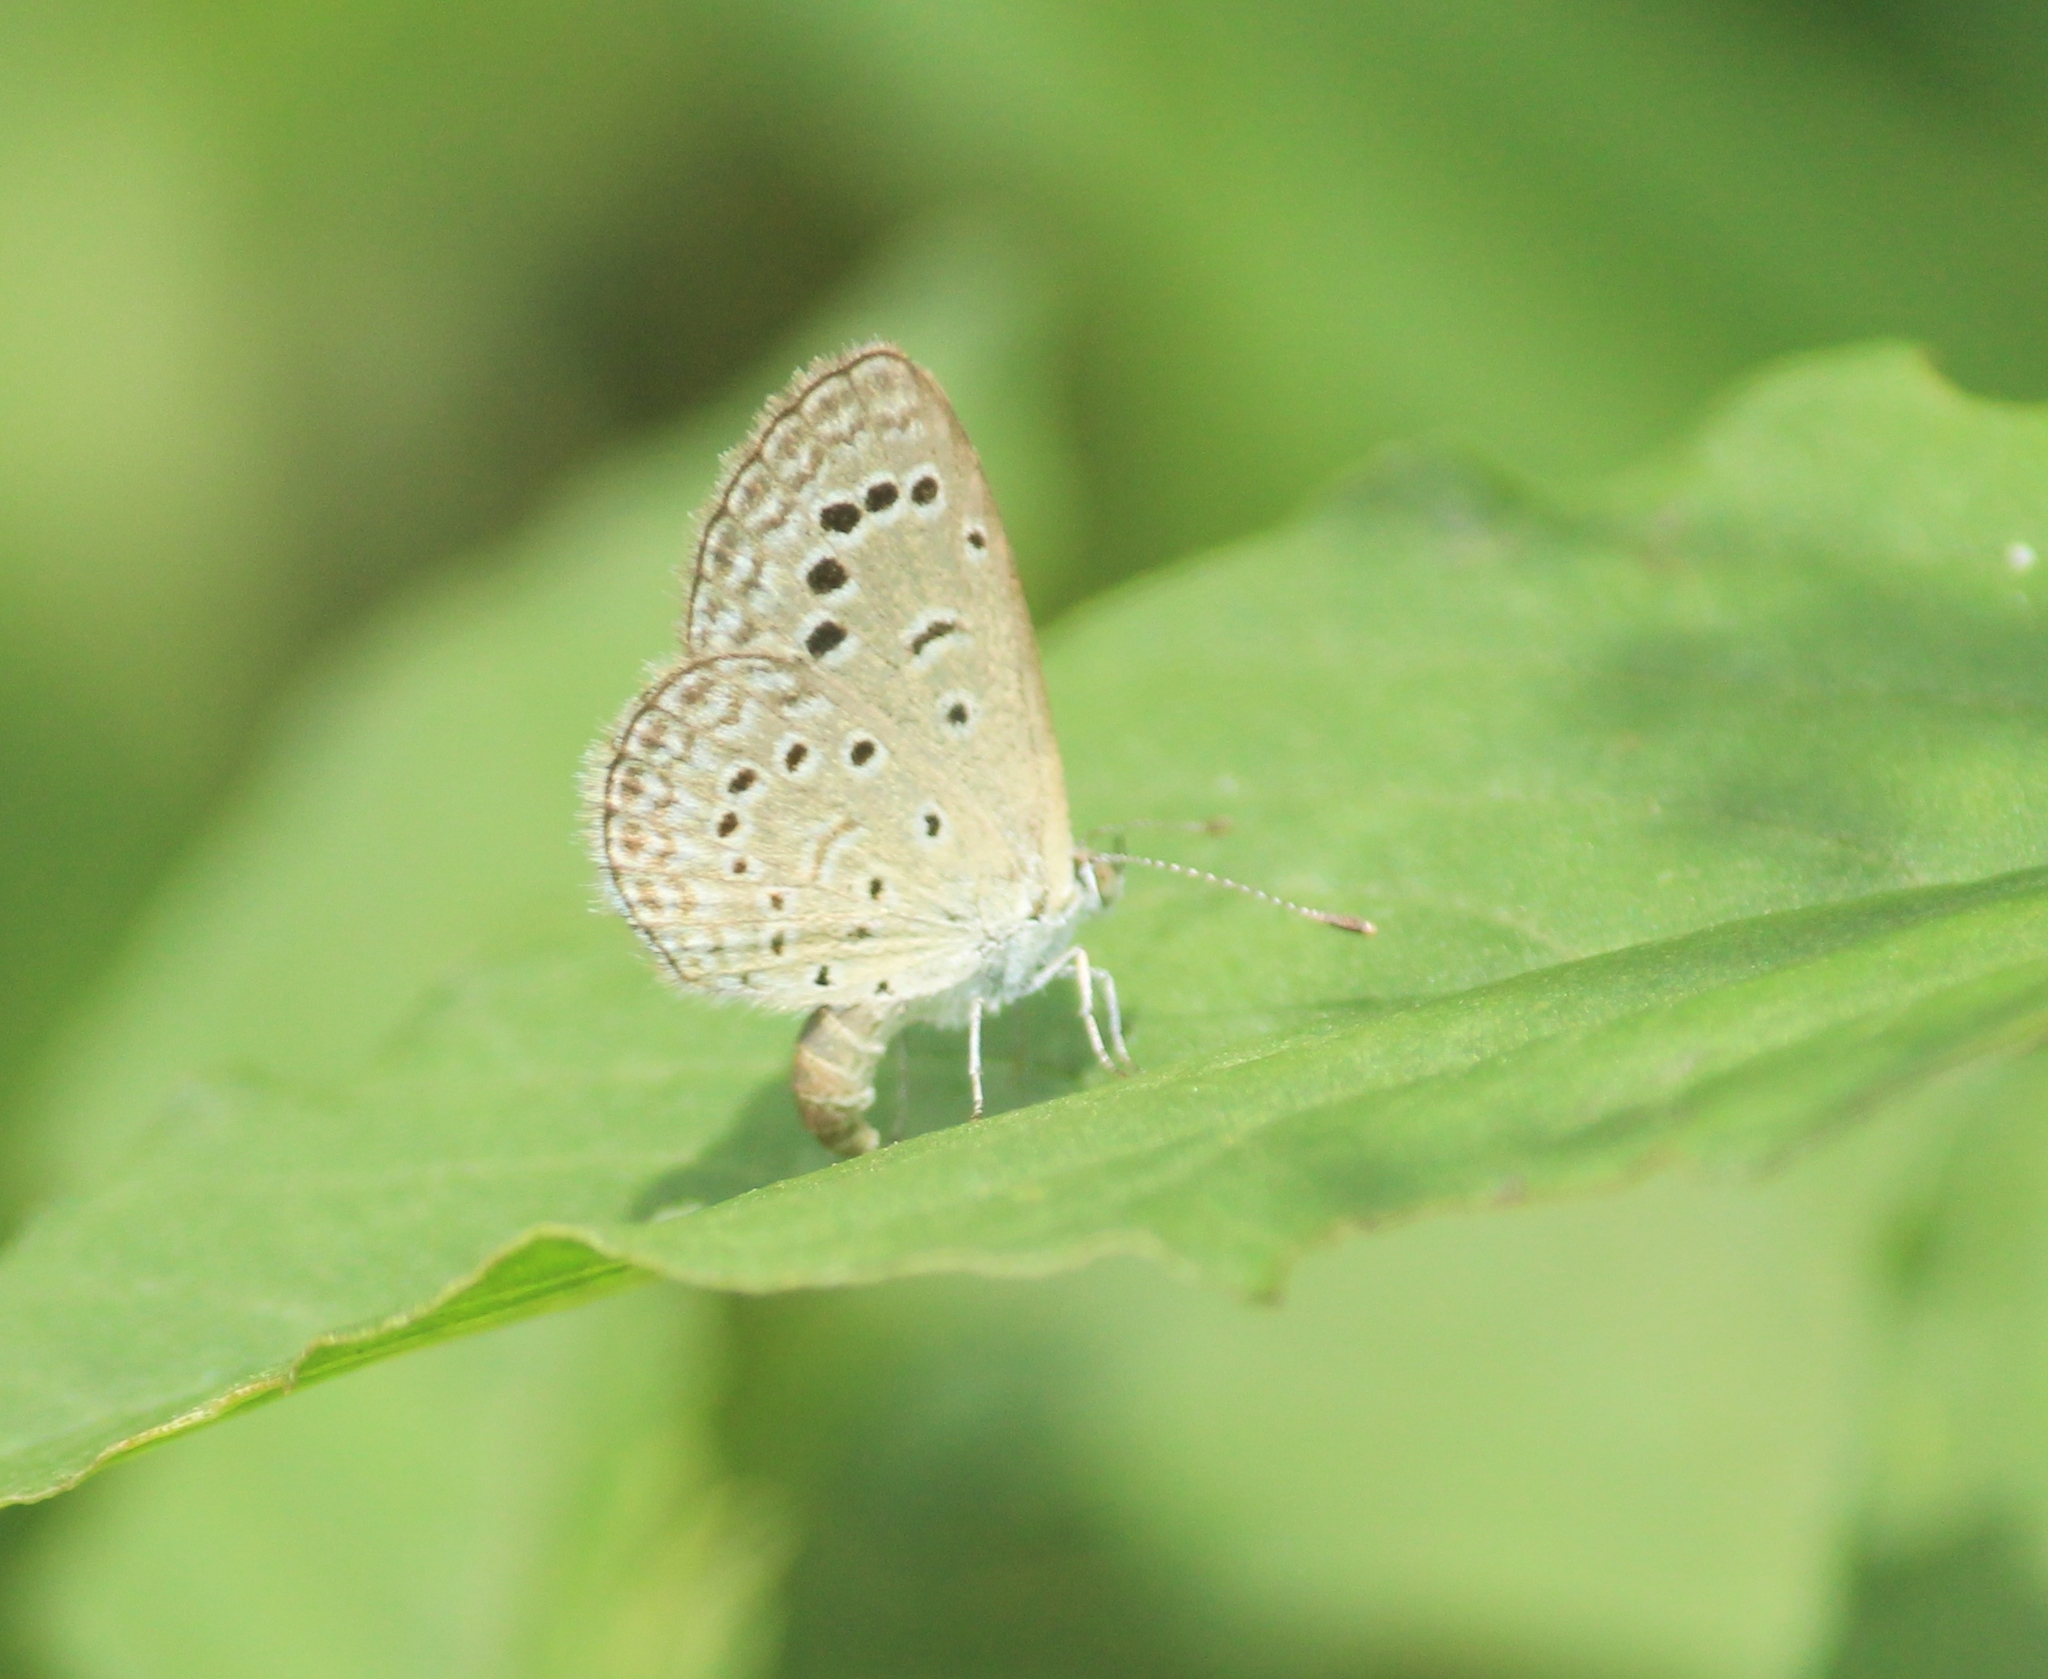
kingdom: Animalia
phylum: Arthropoda
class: Insecta
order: Lepidoptera
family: Lycaenidae
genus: Zizeeria
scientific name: Zizeeria karsandra
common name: Dark grass blue
